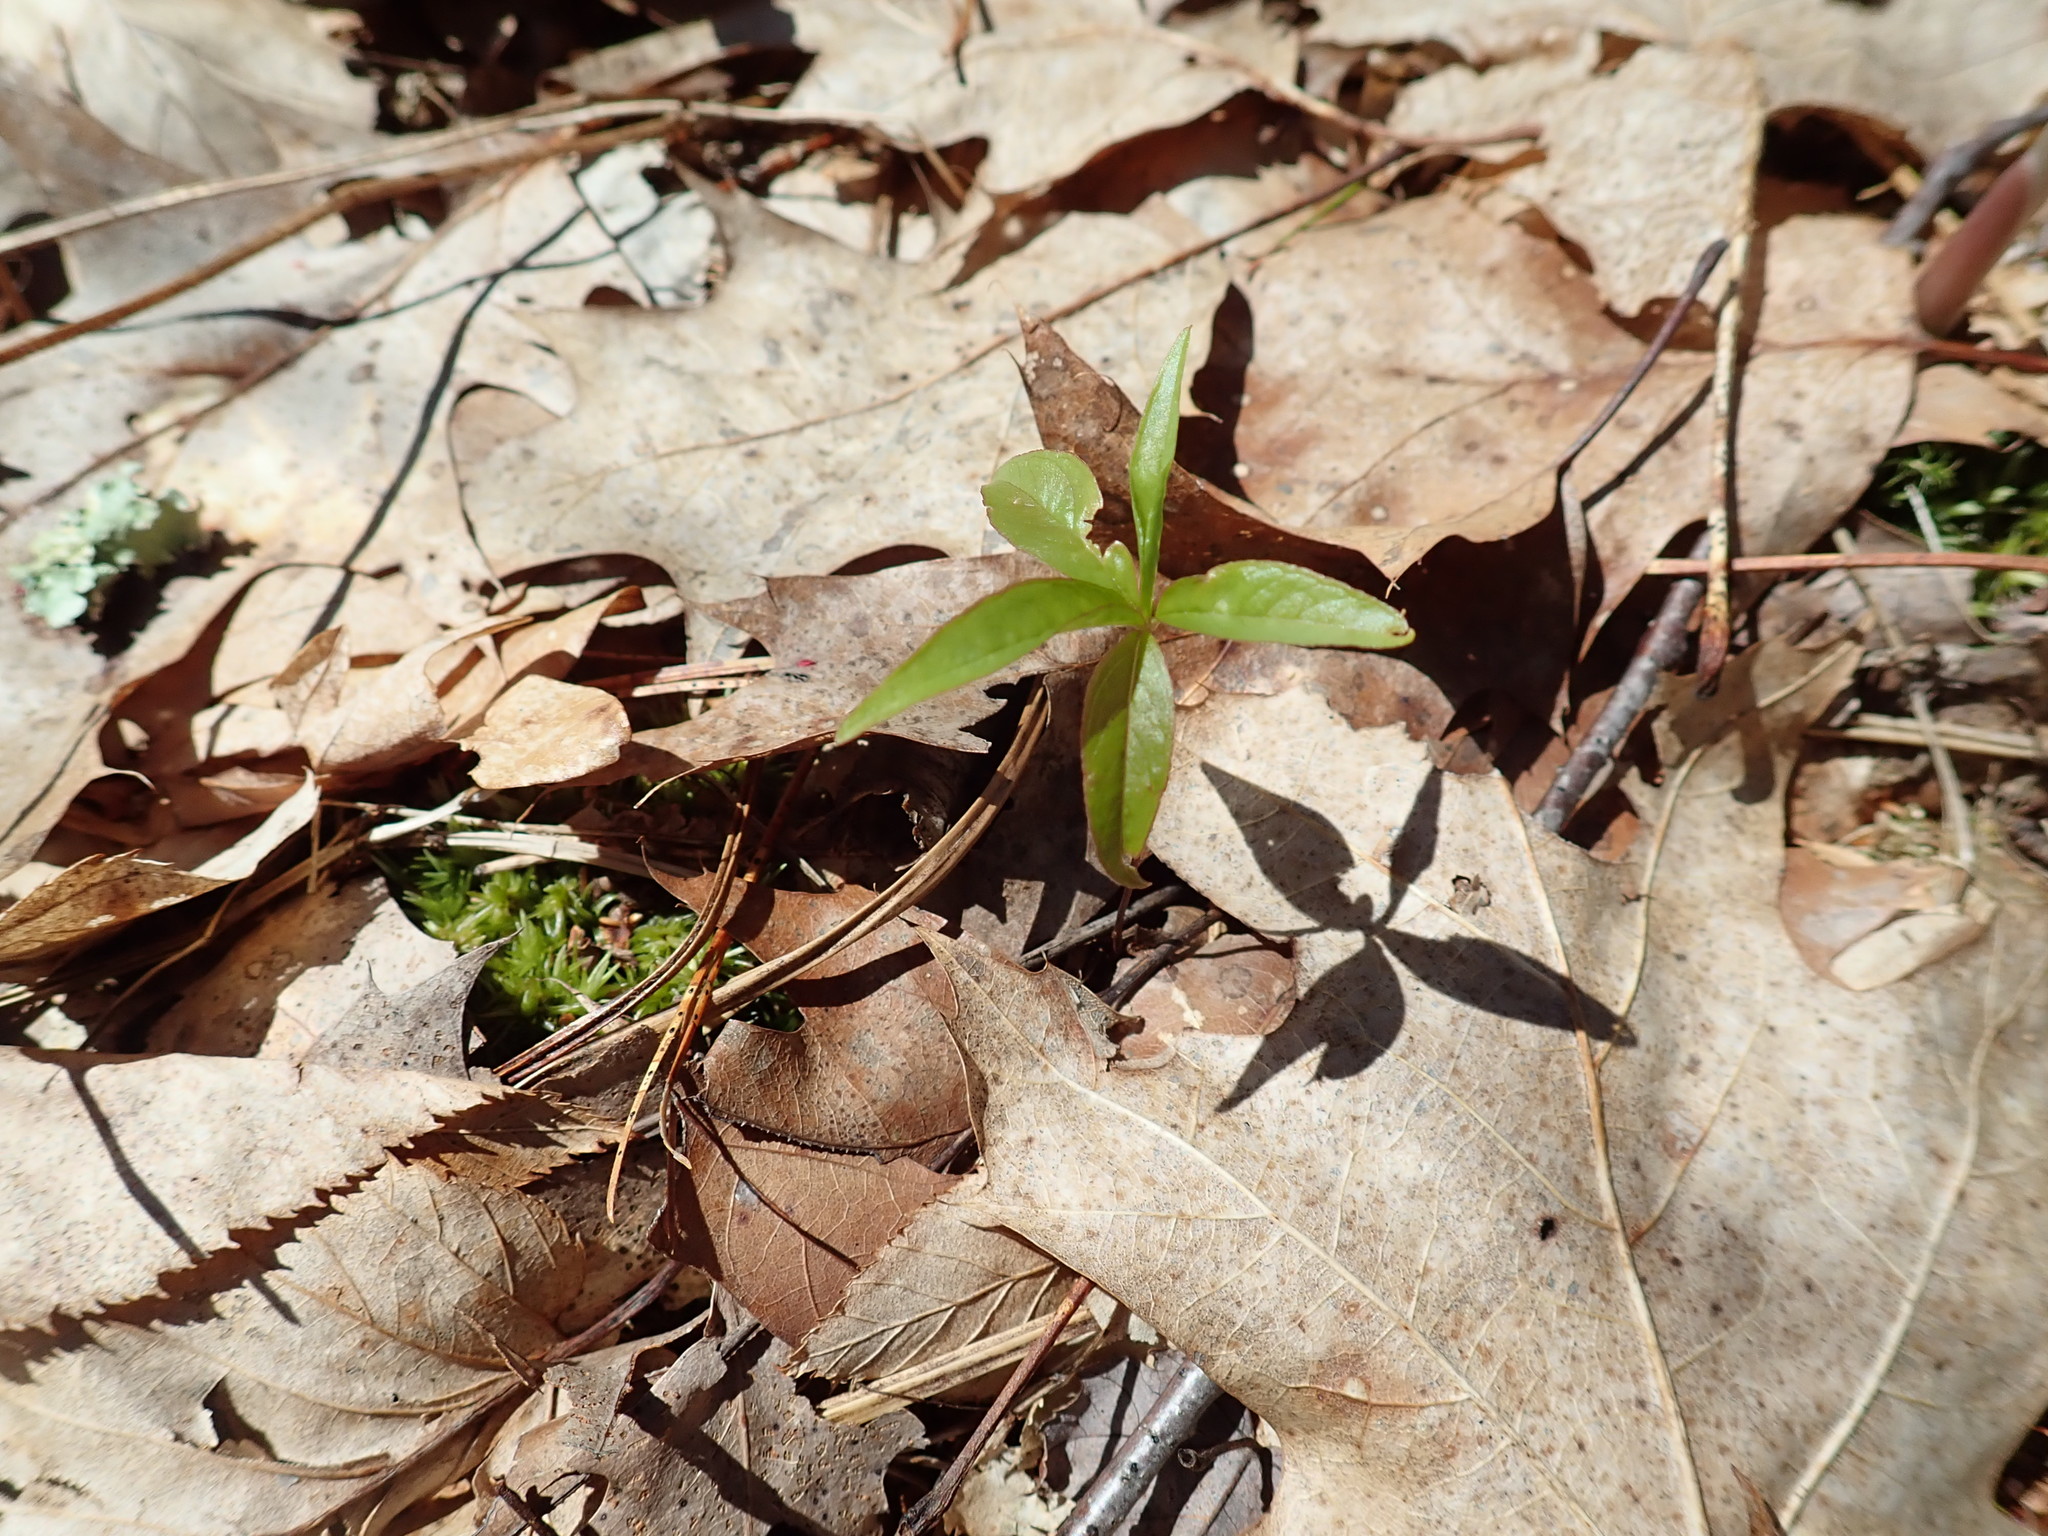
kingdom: Plantae
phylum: Tracheophyta
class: Magnoliopsida
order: Ericales
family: Primulaceae
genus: Lysimachia
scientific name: Lysimachia borealis
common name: American starflower
